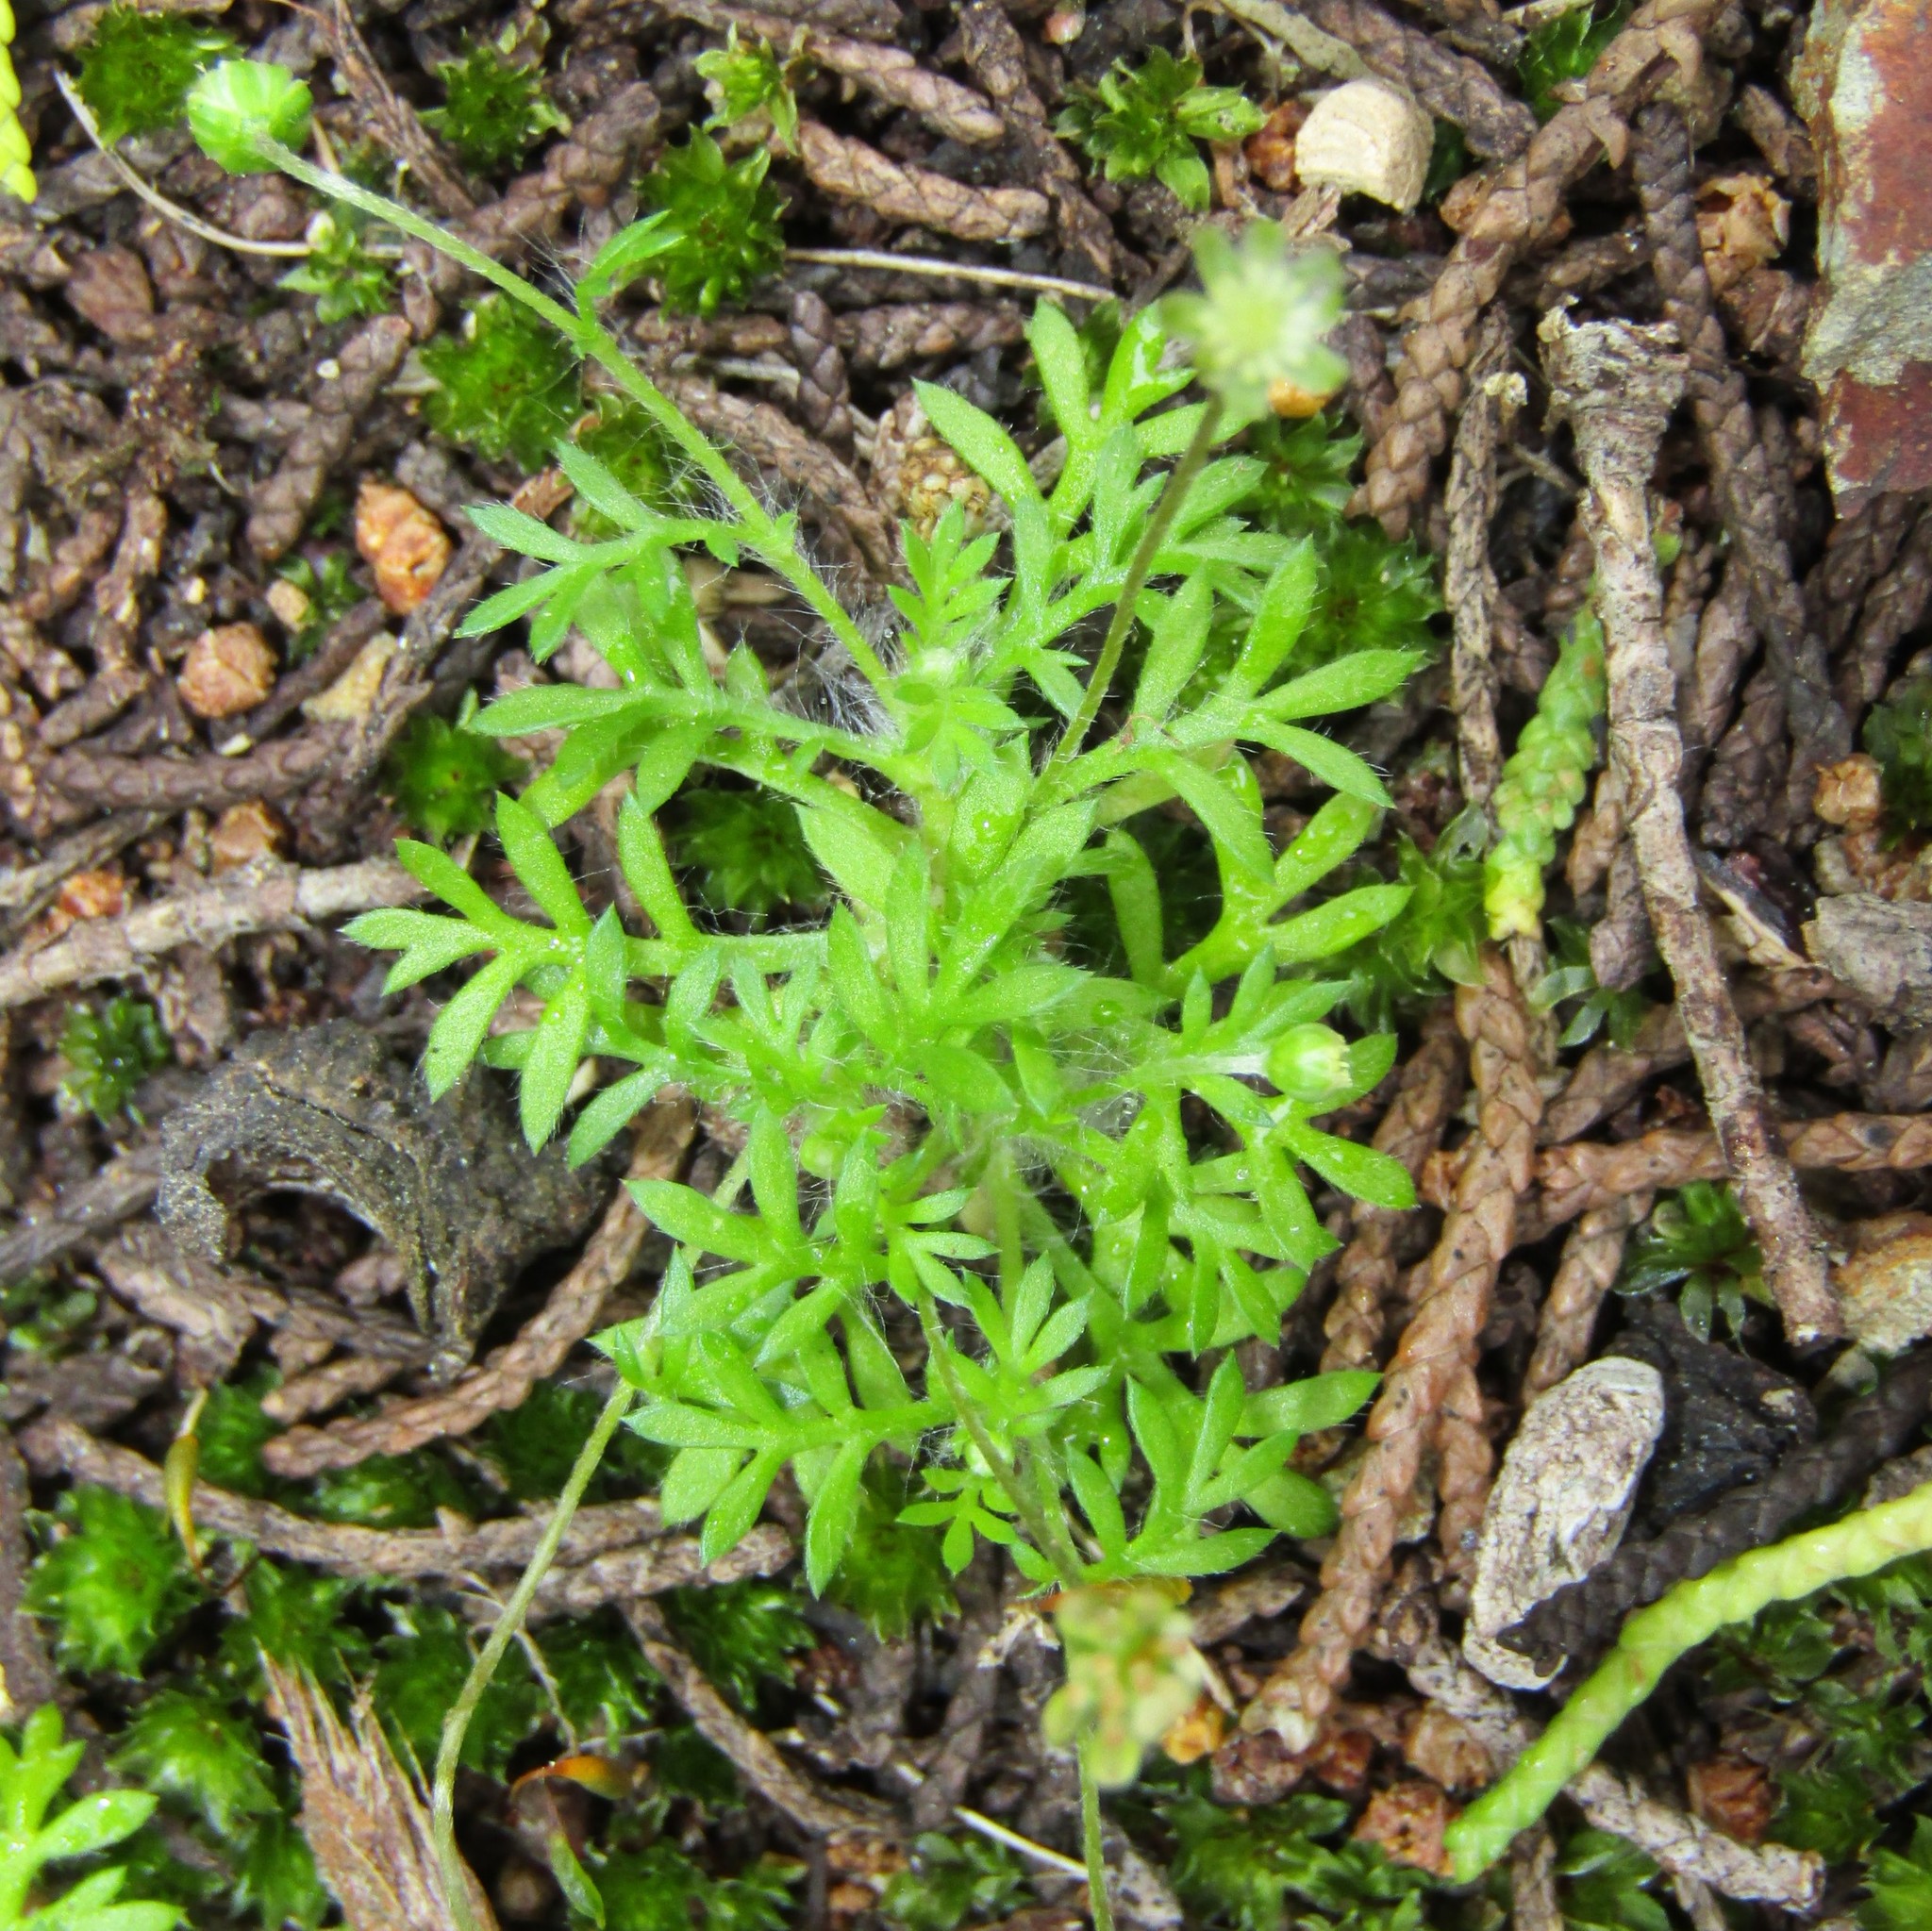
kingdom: Plantae
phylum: Tracheophyta
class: Magnoliopsida
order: Asterales
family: Asteraceae
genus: Cotula
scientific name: Cotula australis
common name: Australian waterbuttons
